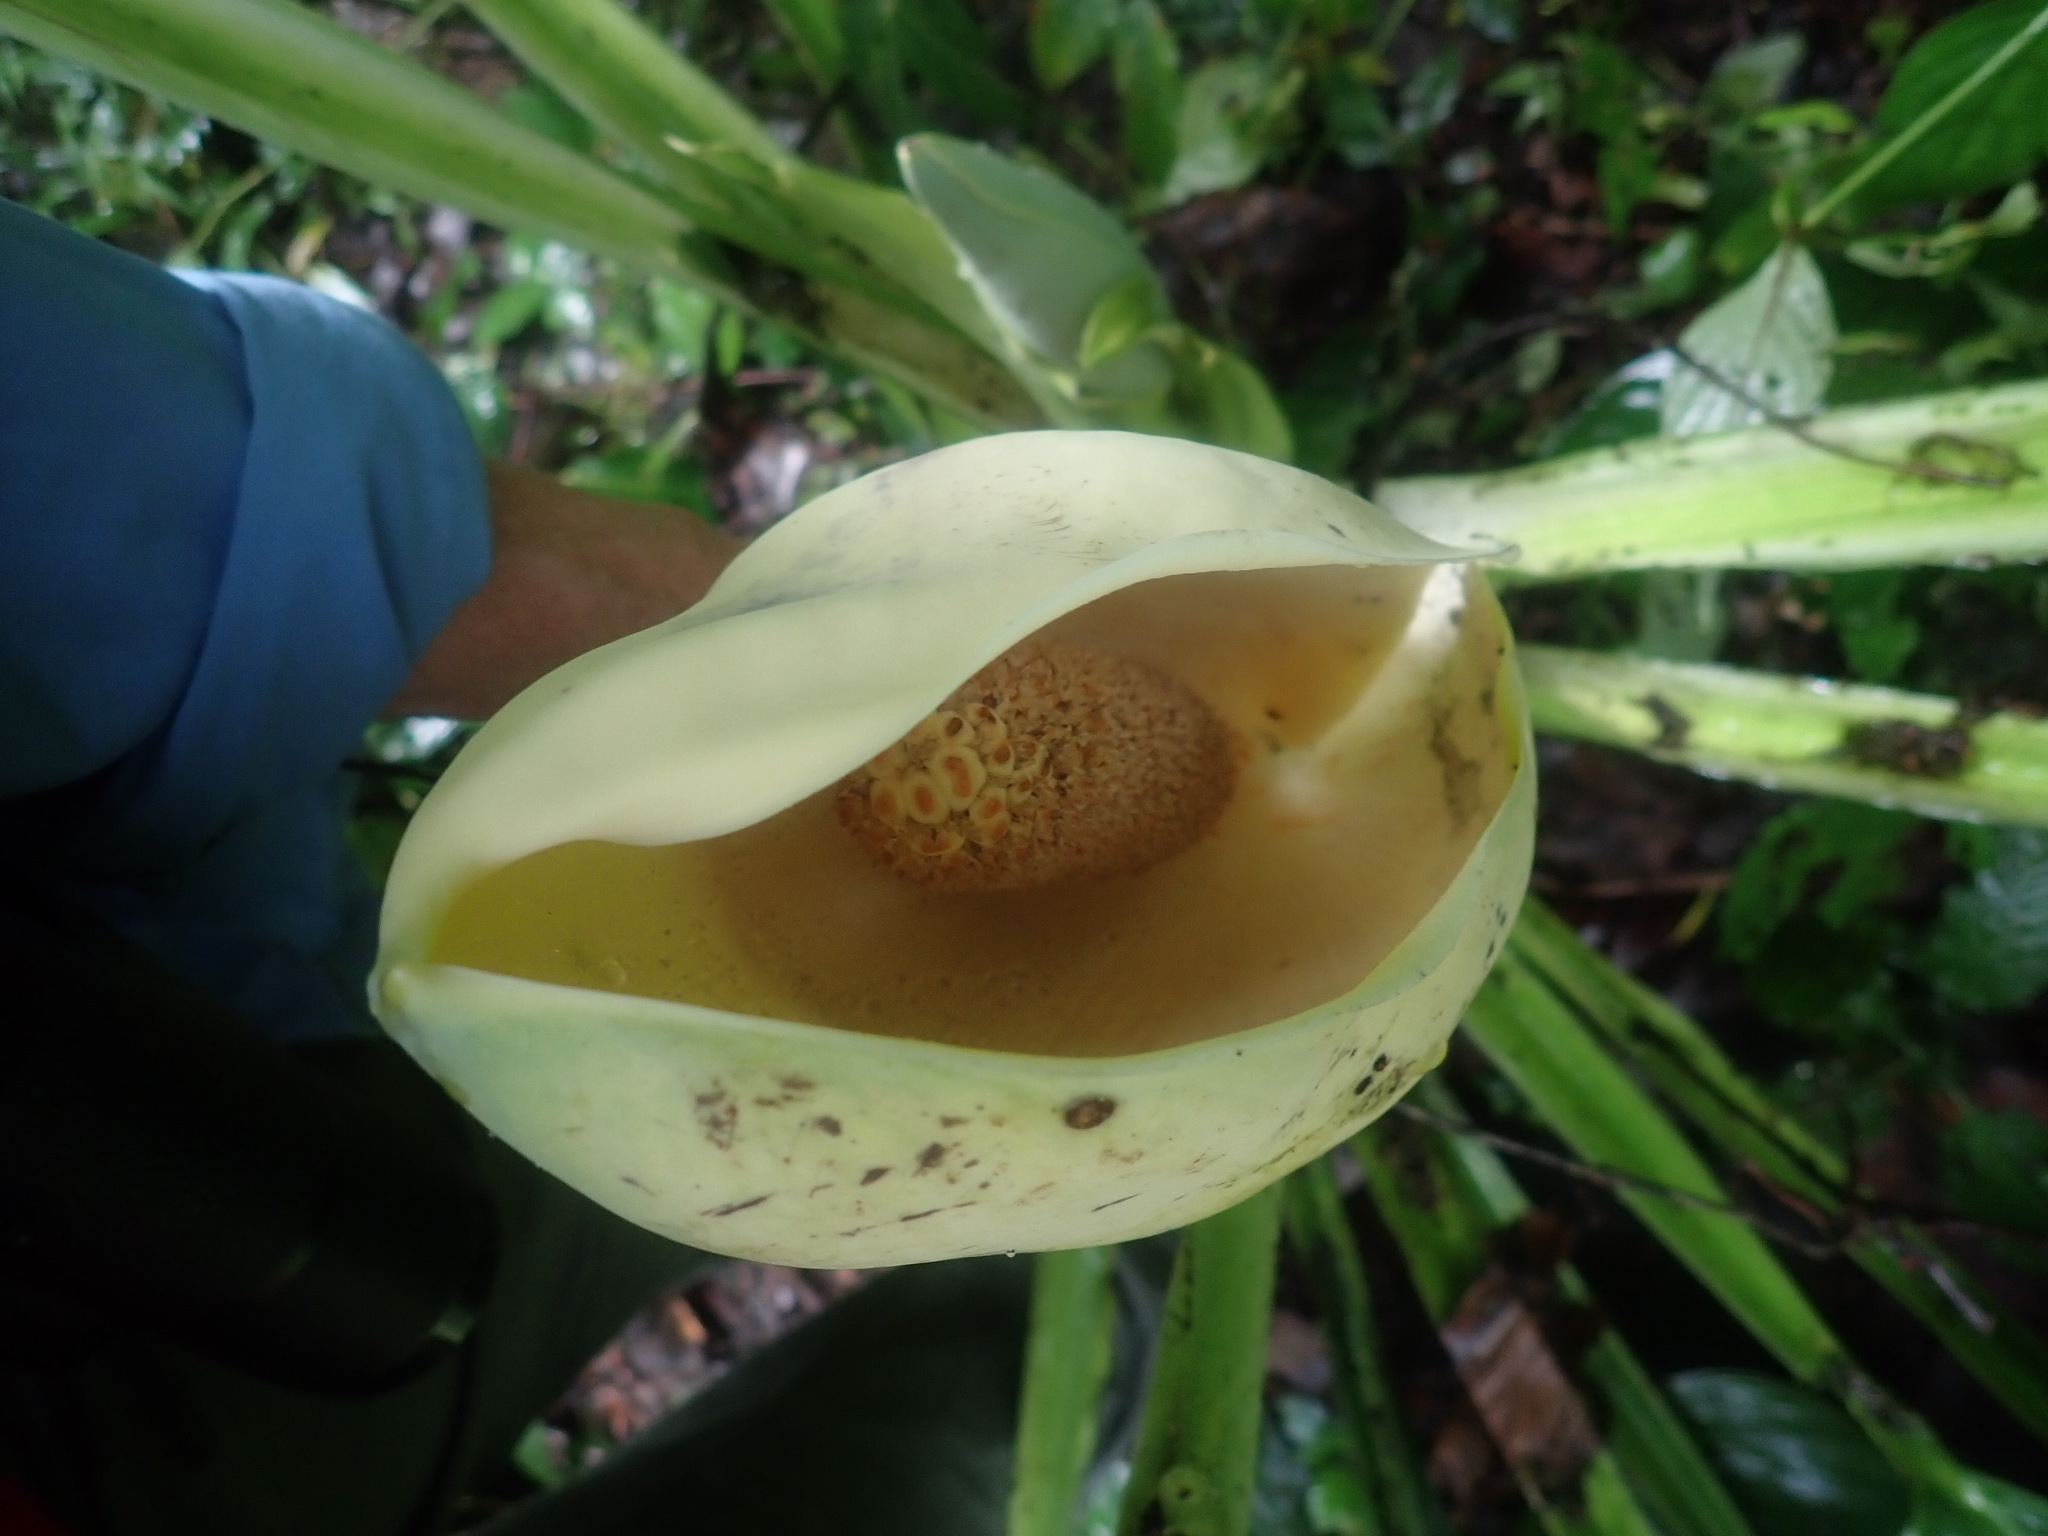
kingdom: Plantae
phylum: Tracheophyta
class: Liliopsida
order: Alismatales
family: Araceae
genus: Monstera
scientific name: Monstera egregia
